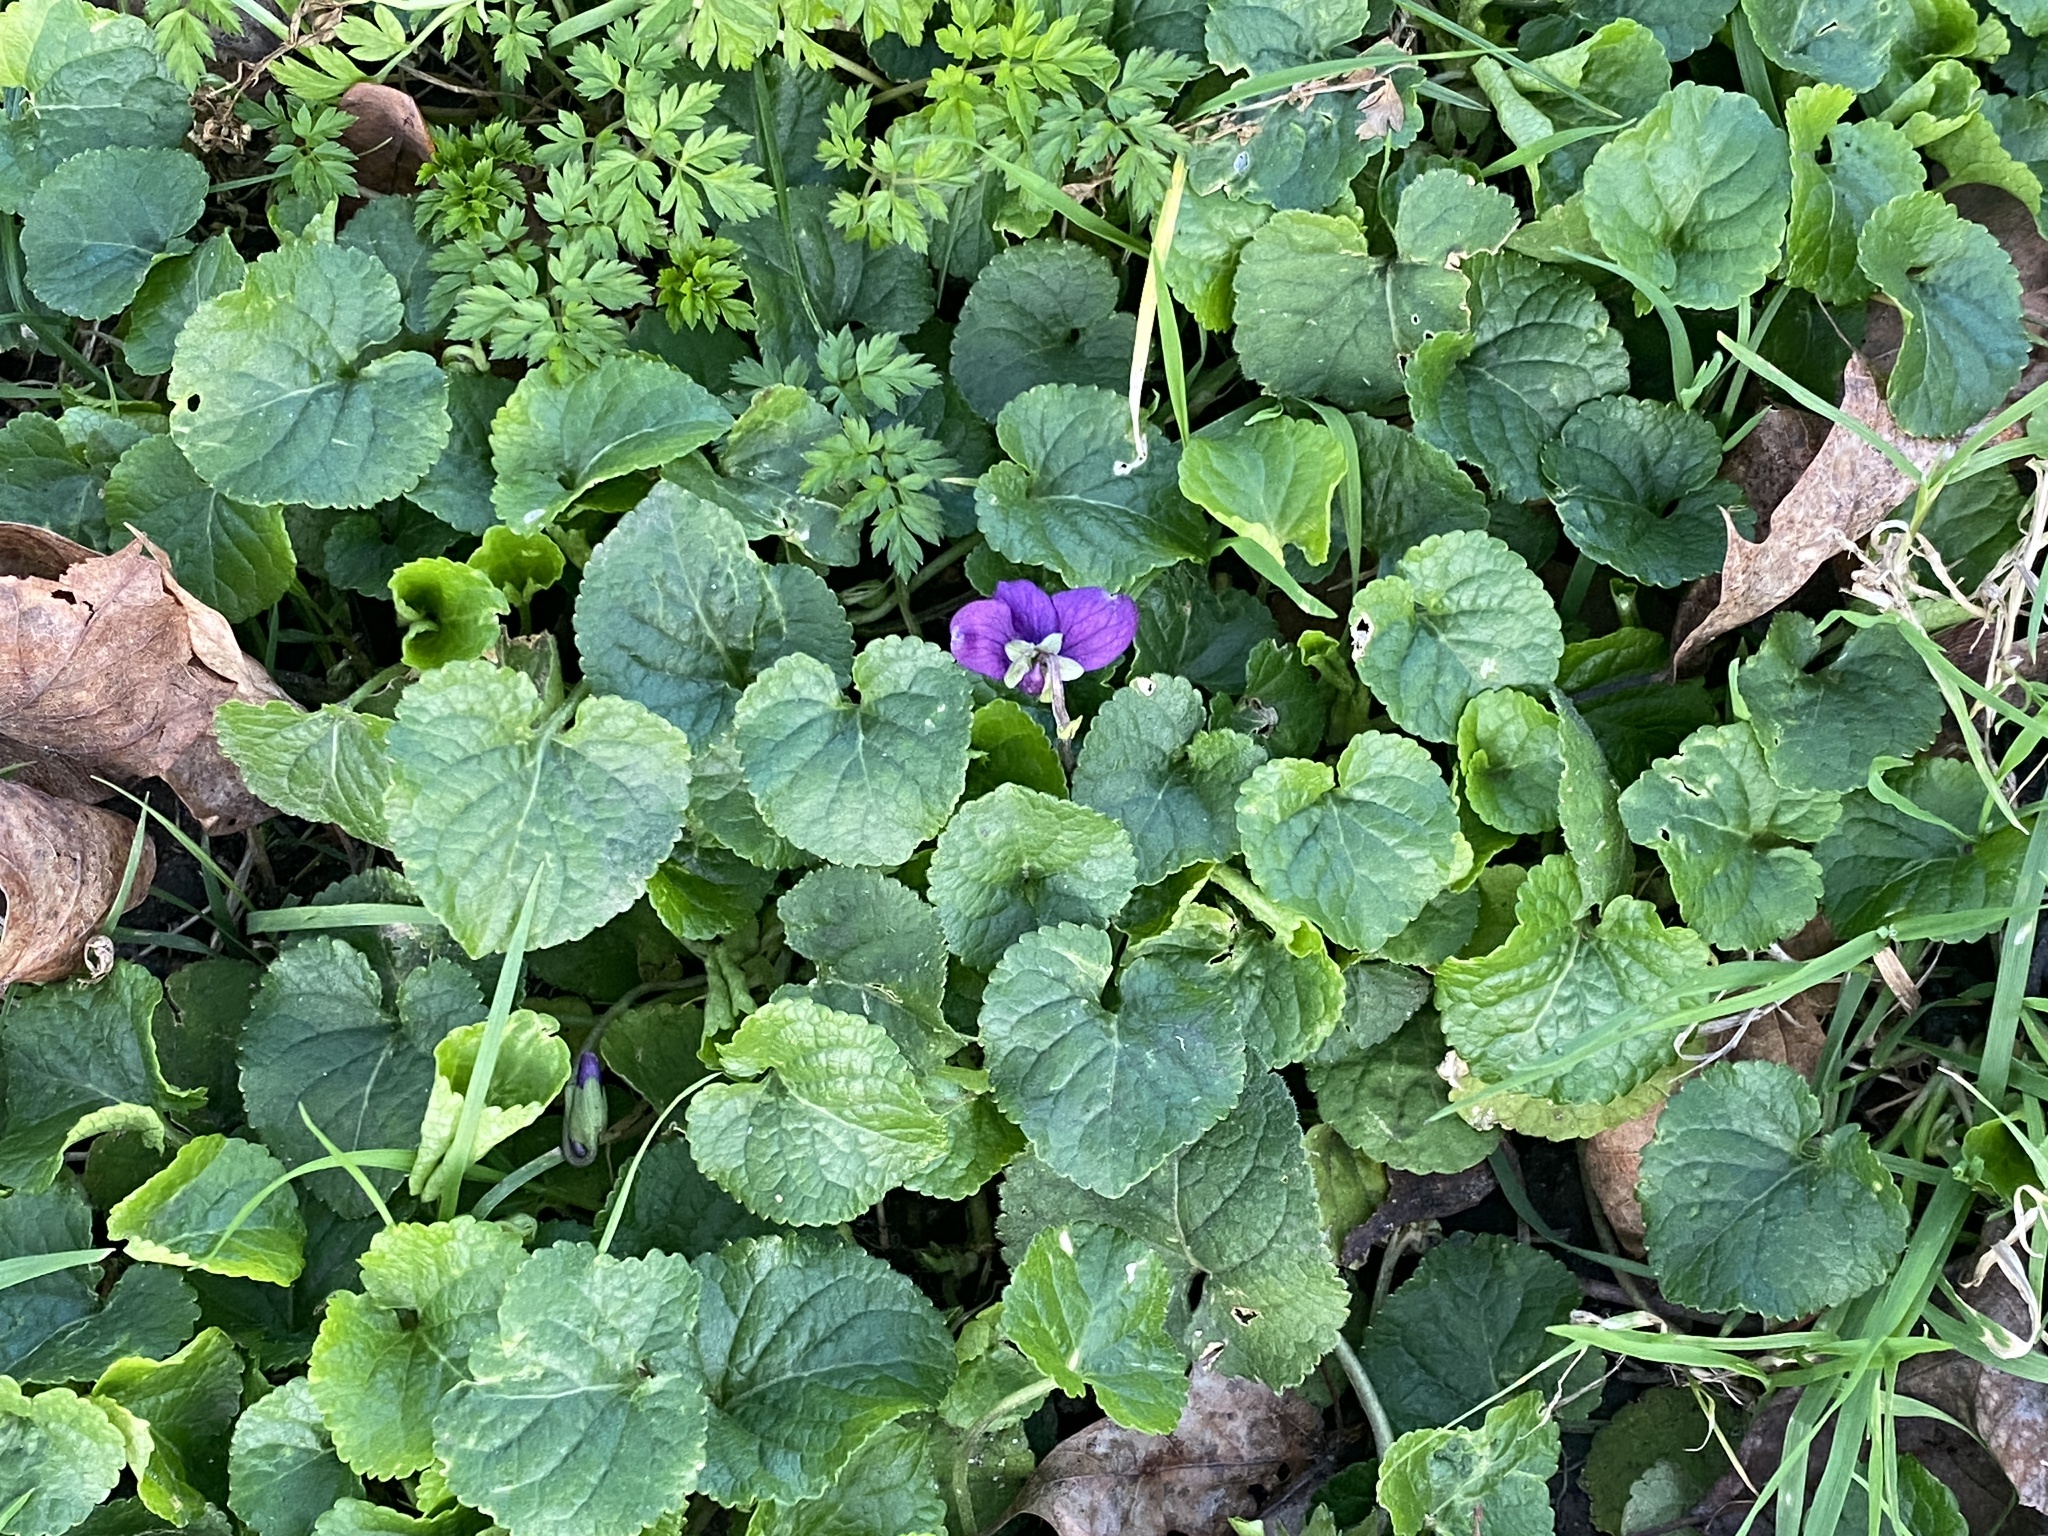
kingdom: Plantae
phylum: Tracheophyta
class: Magnoliopsida
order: Malpighiales
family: Violaceae
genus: Viola
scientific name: Viola odorata
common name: Sweet violet
